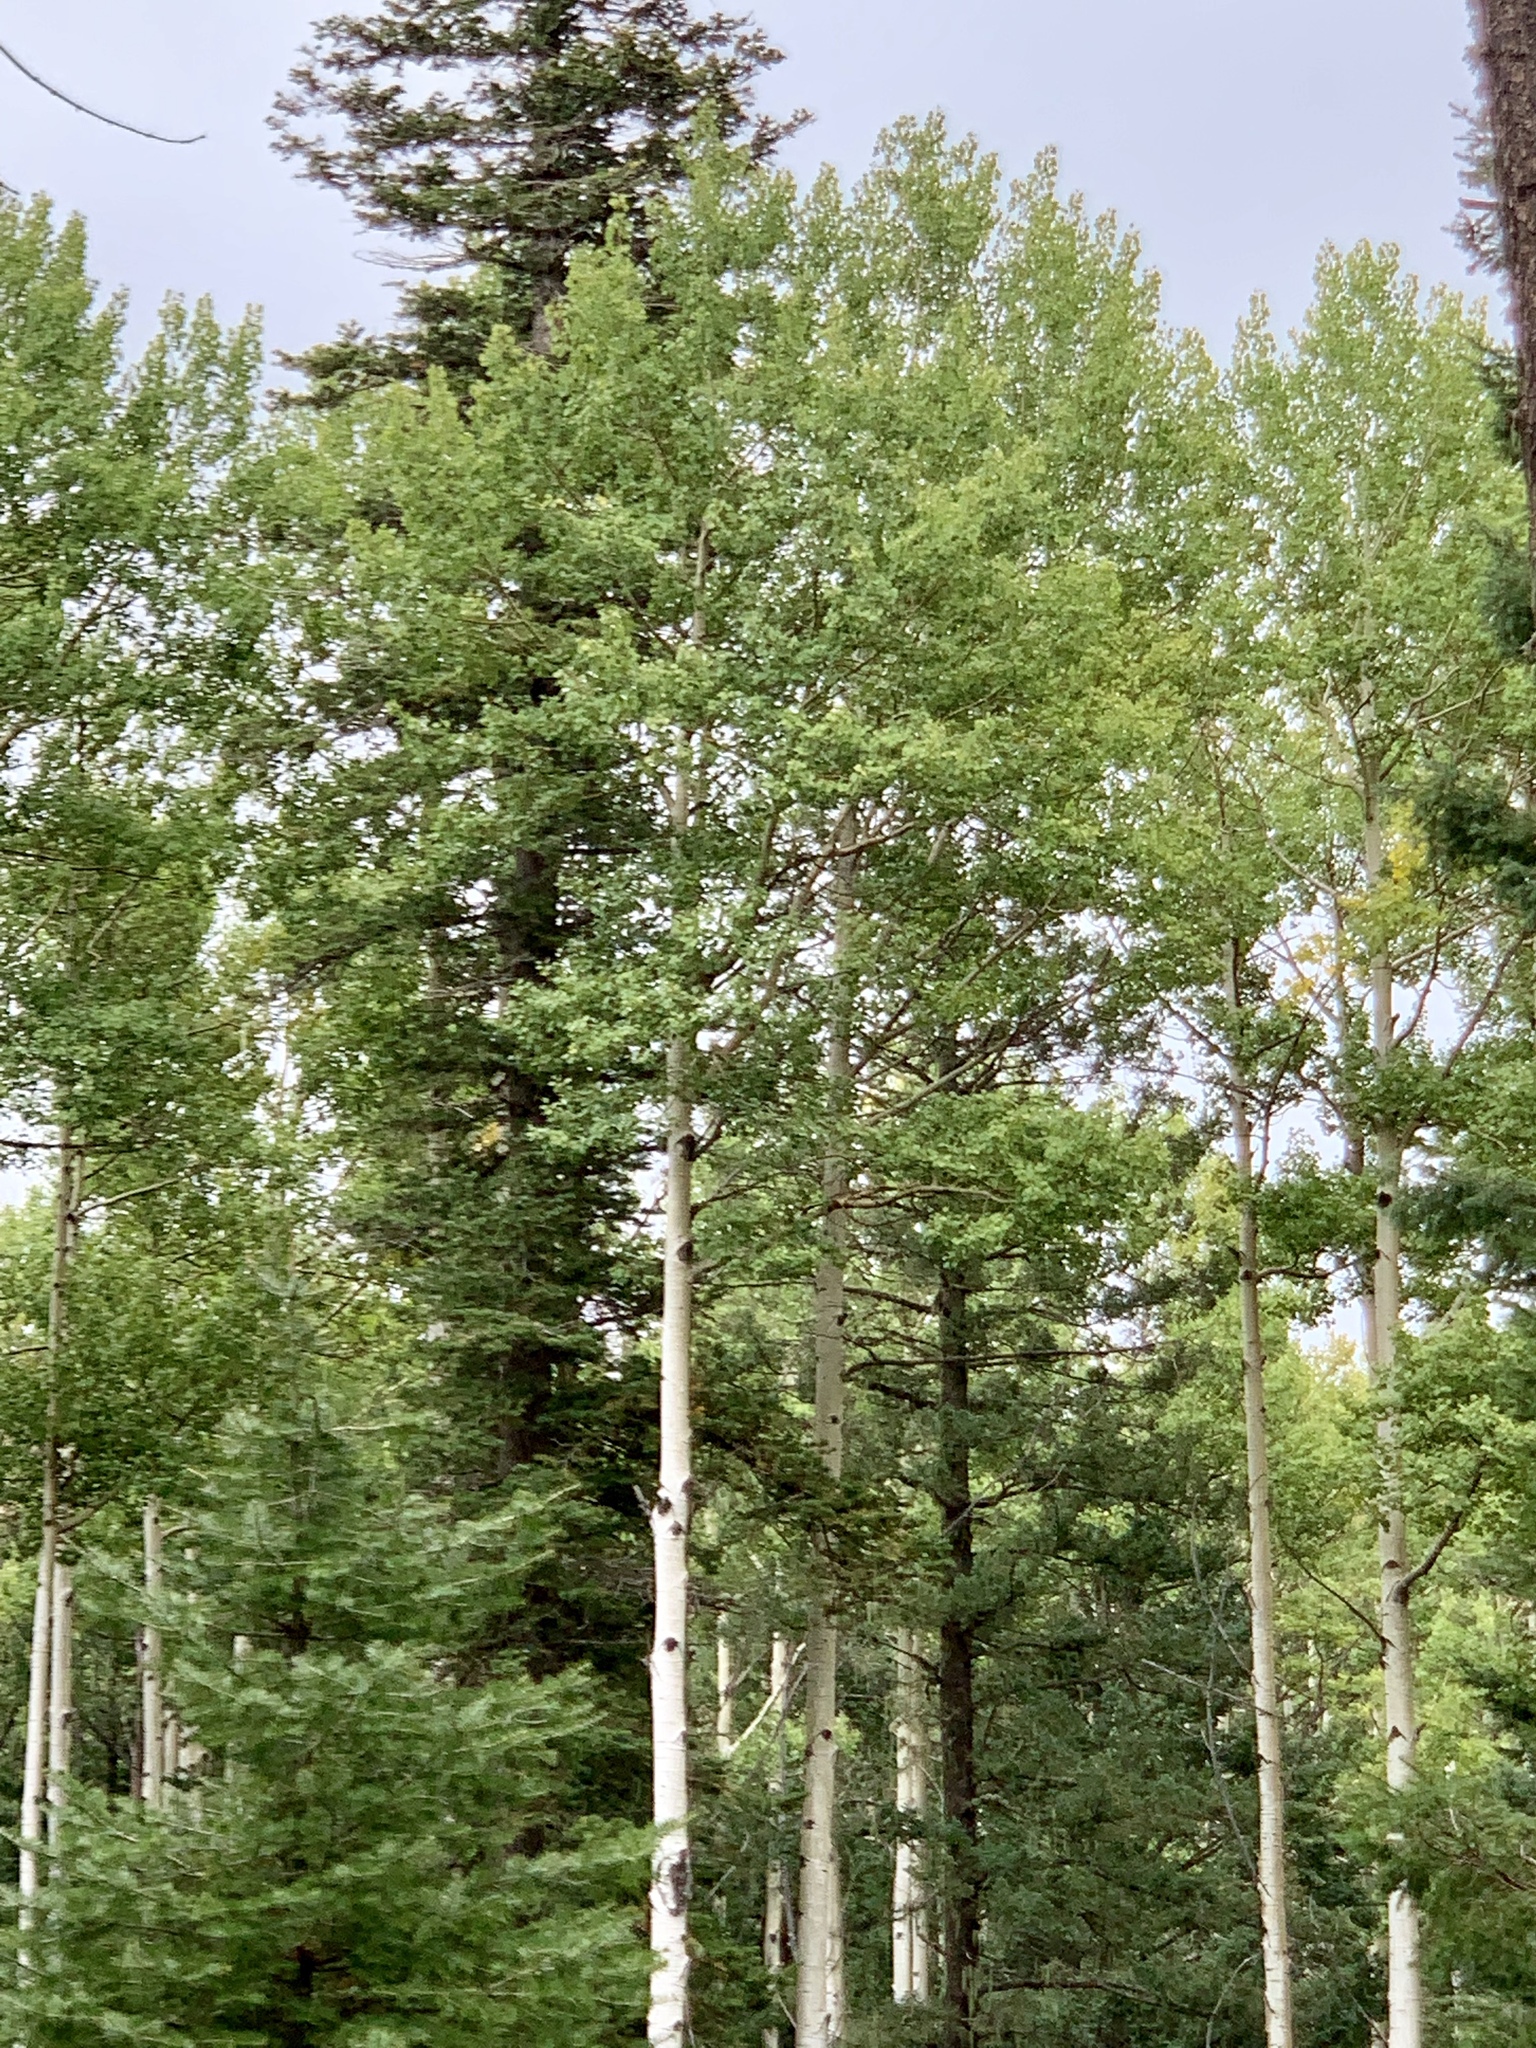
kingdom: Plantae
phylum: Tracheophyta
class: Magnoliopsida
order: Malpighiales
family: Salicaceae
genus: Populus
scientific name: Populus tremuloides
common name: Quaking aspen
